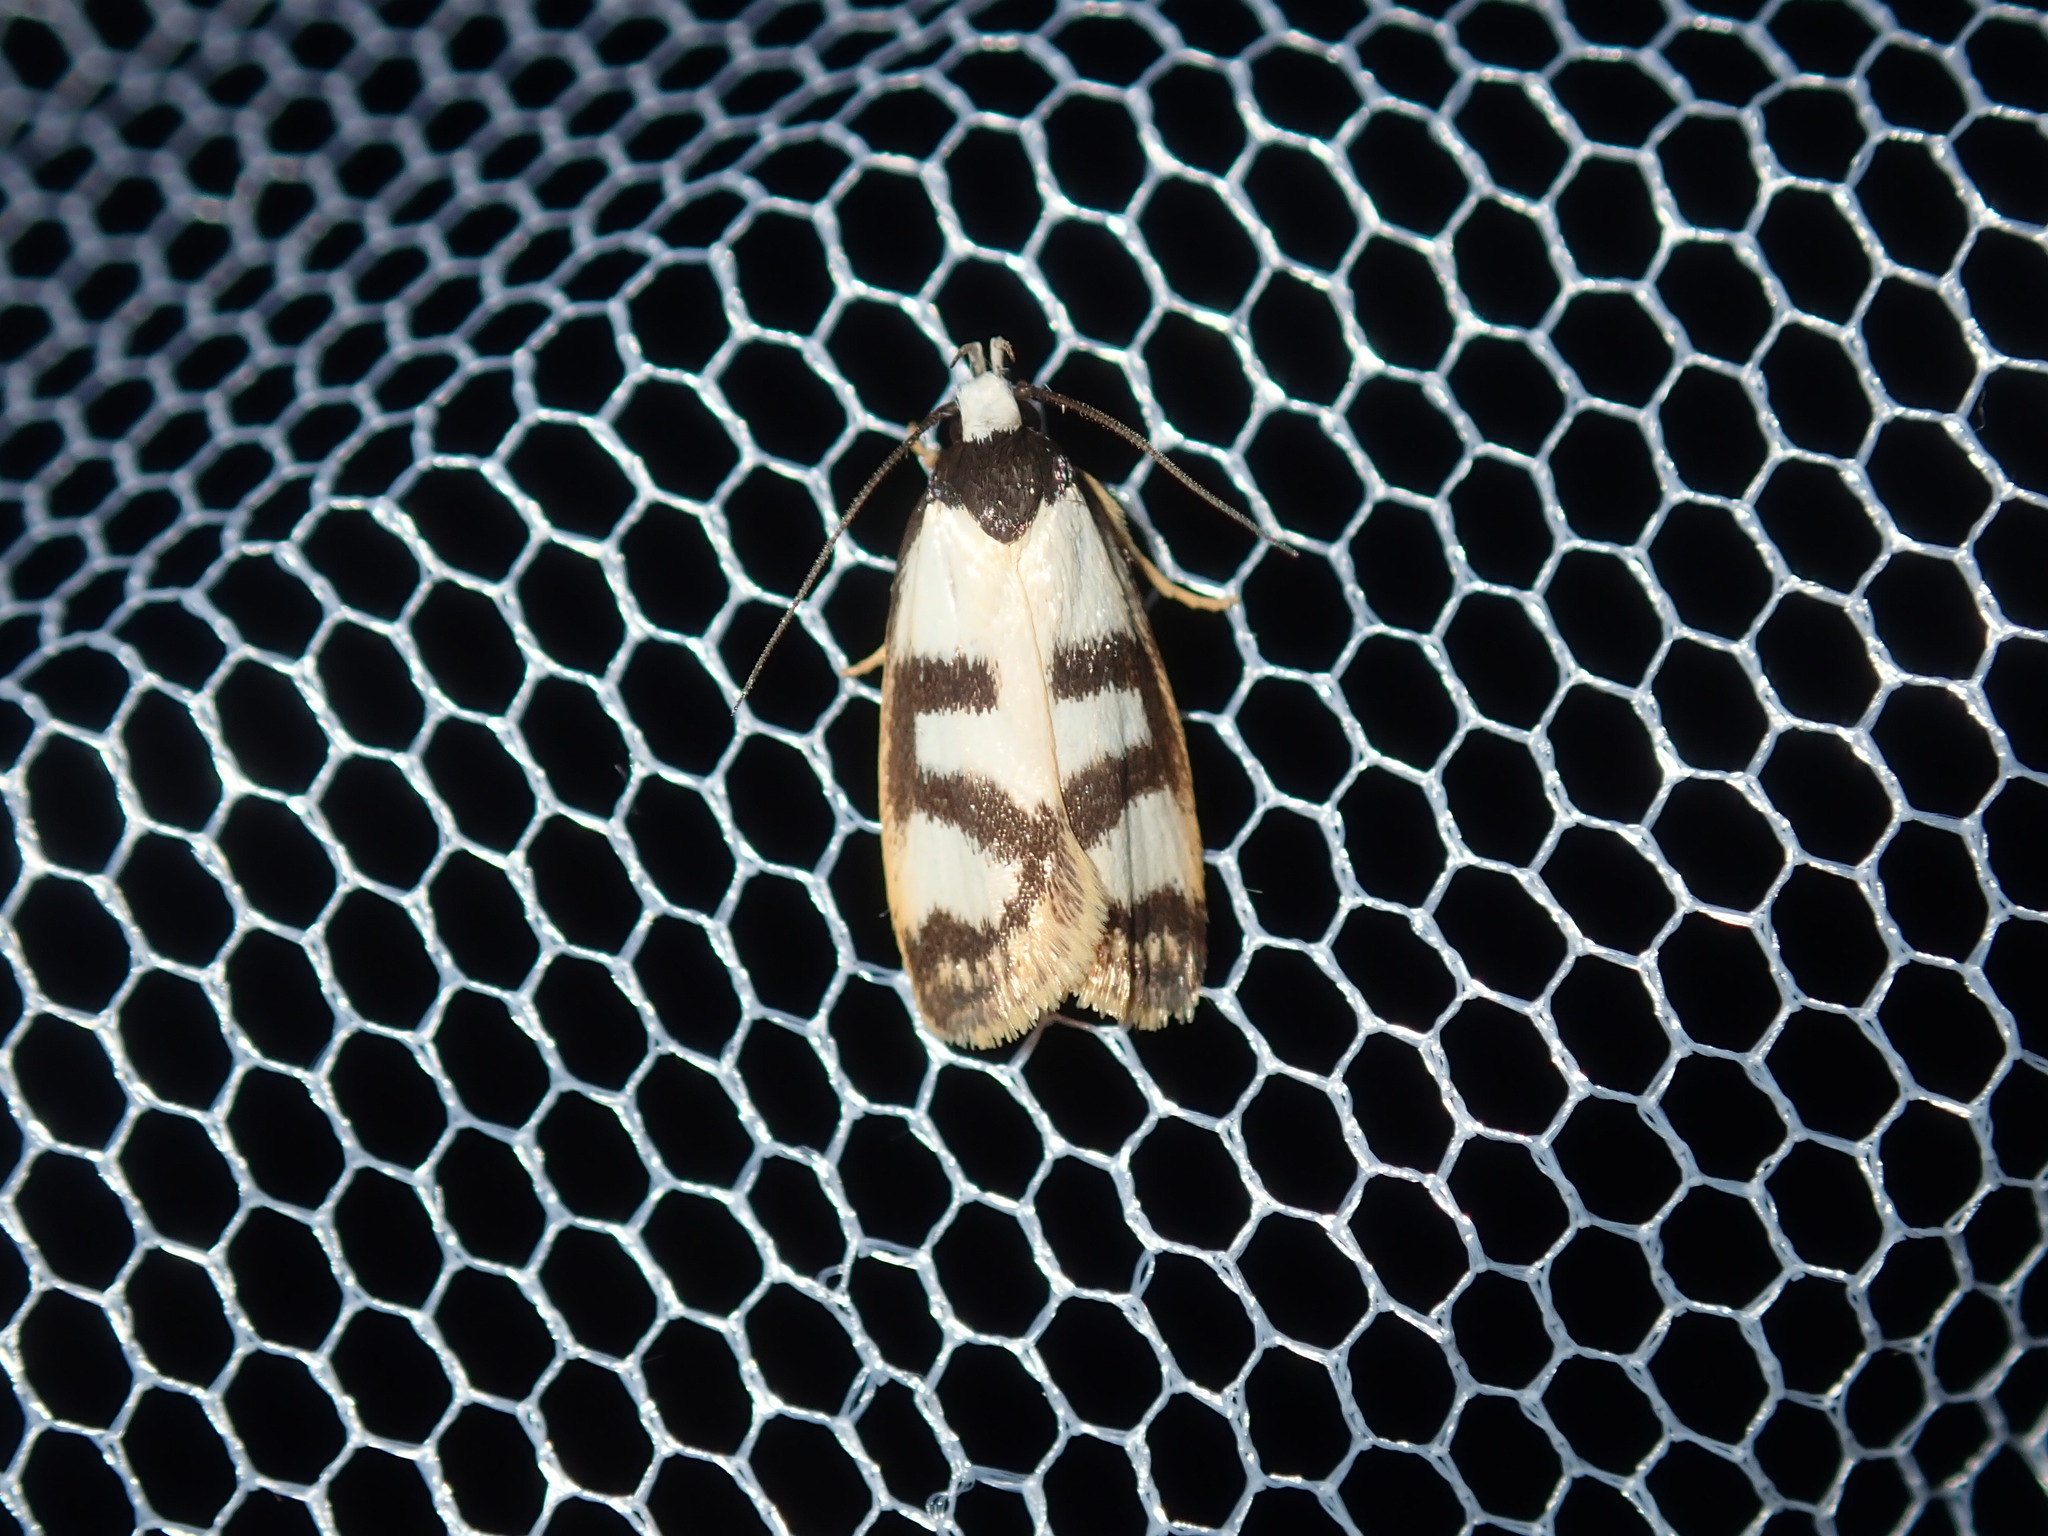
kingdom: Animalia
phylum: Arthropoda
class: Insecta
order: Lepidoptera
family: Oecophoridae
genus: Eulechria
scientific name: Eulechria sigmophora
